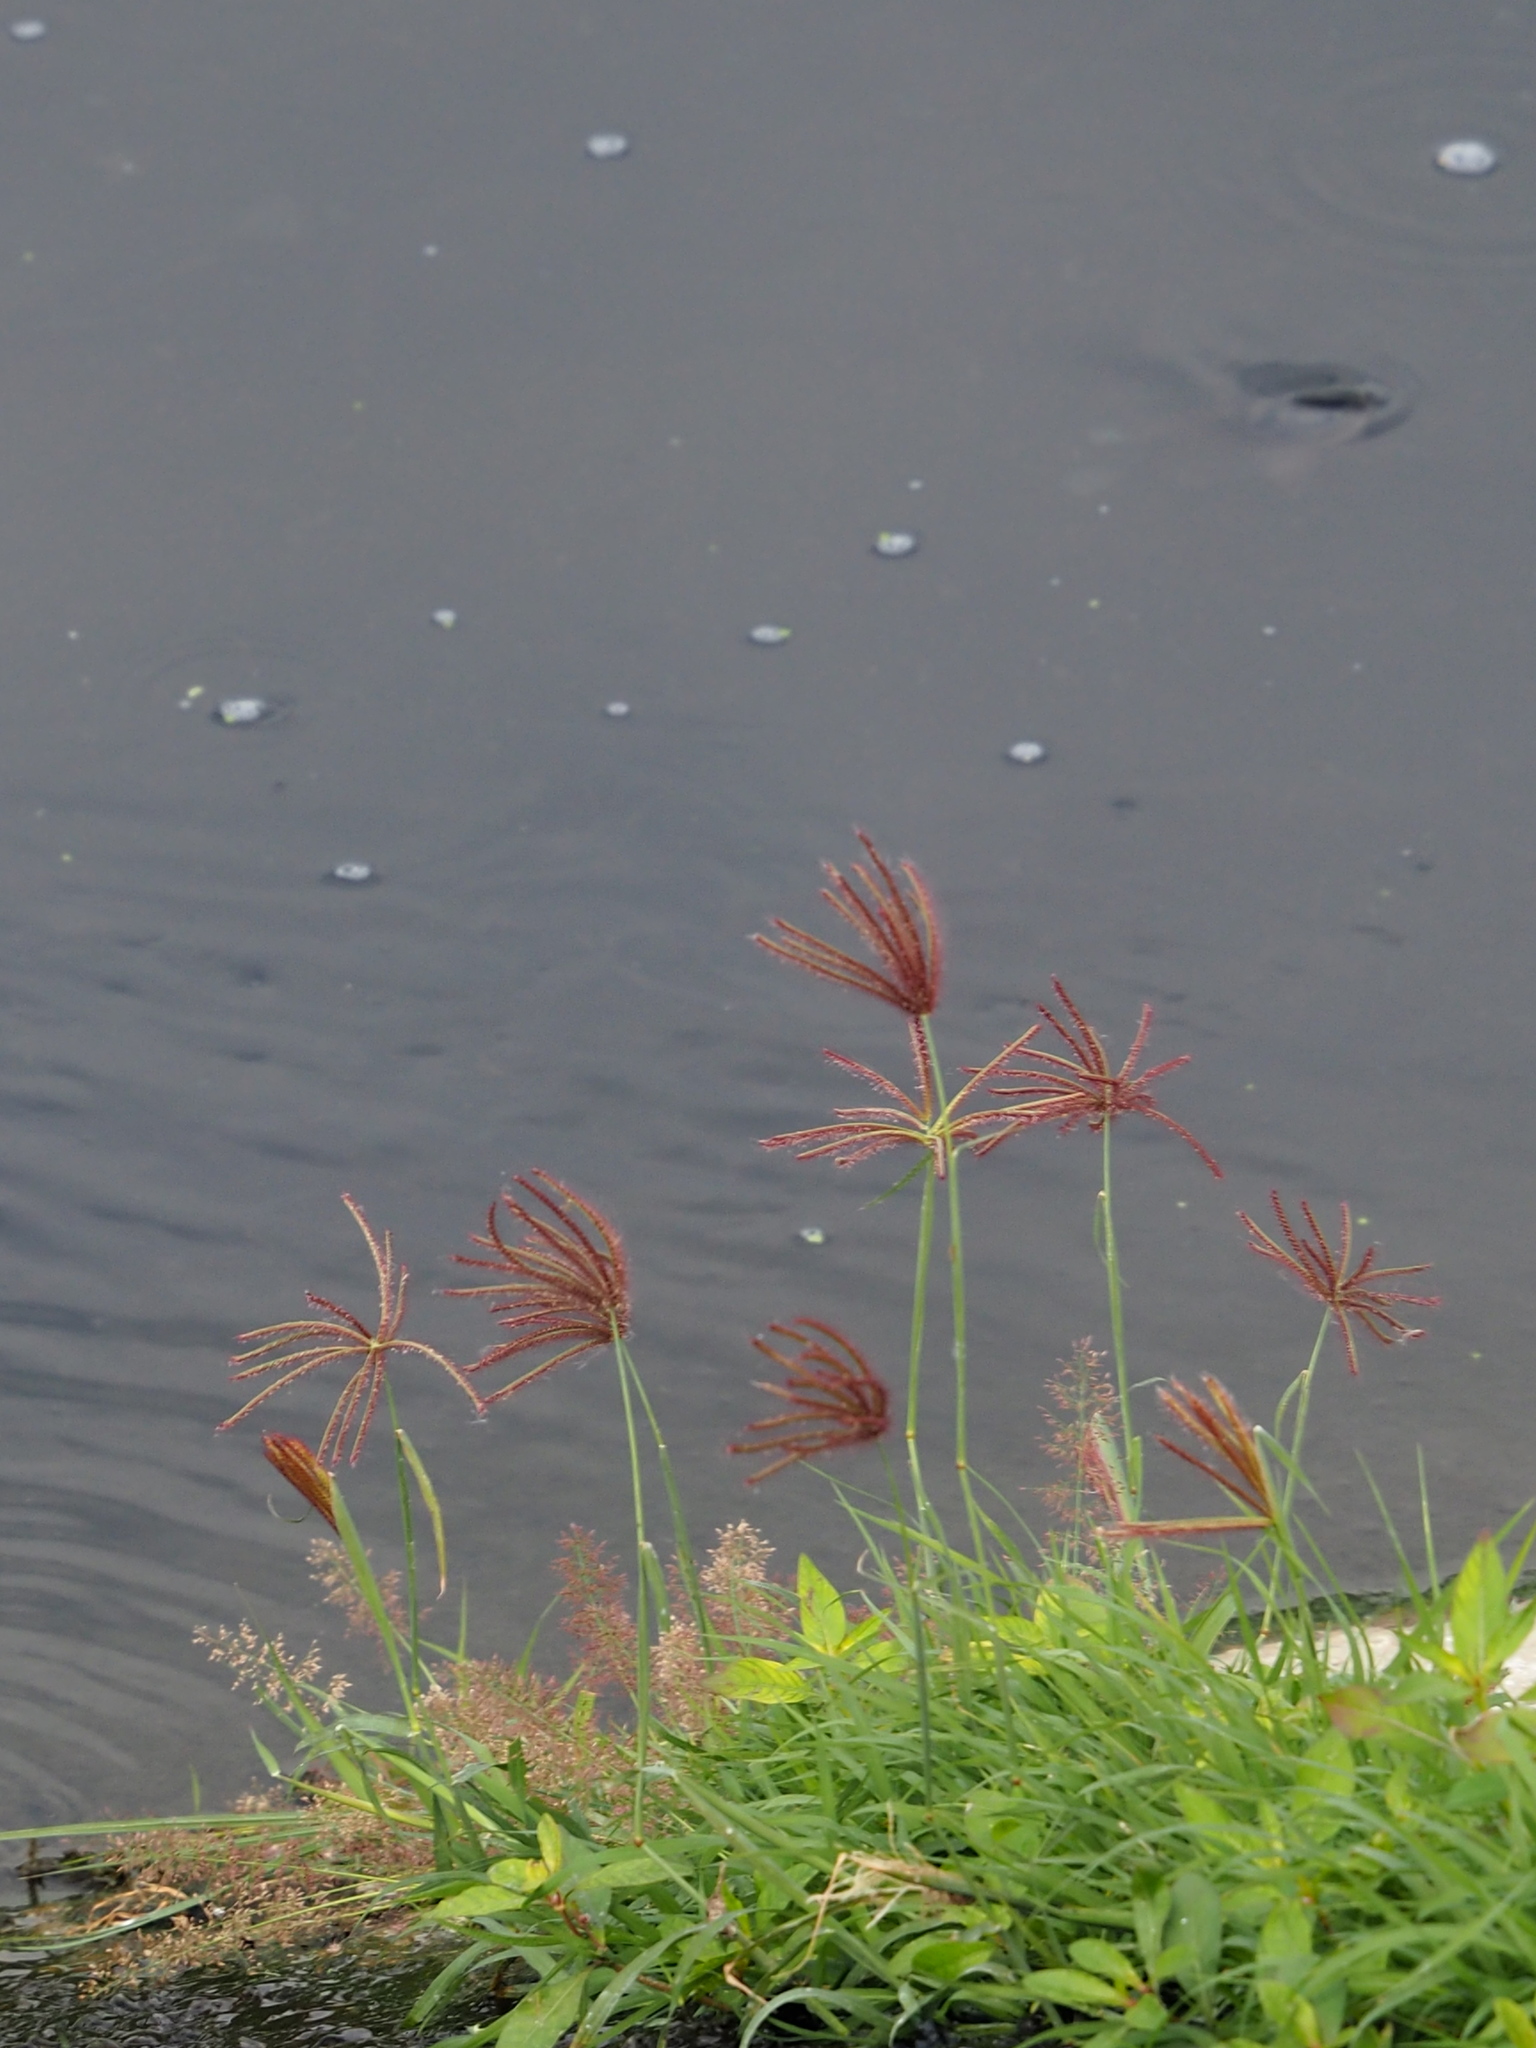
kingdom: Plantae
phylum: Tracheophyta
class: Liliopsida
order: Poales
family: Poaceae
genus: Chloris
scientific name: Chloris barbata
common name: Swollen fingergrass
